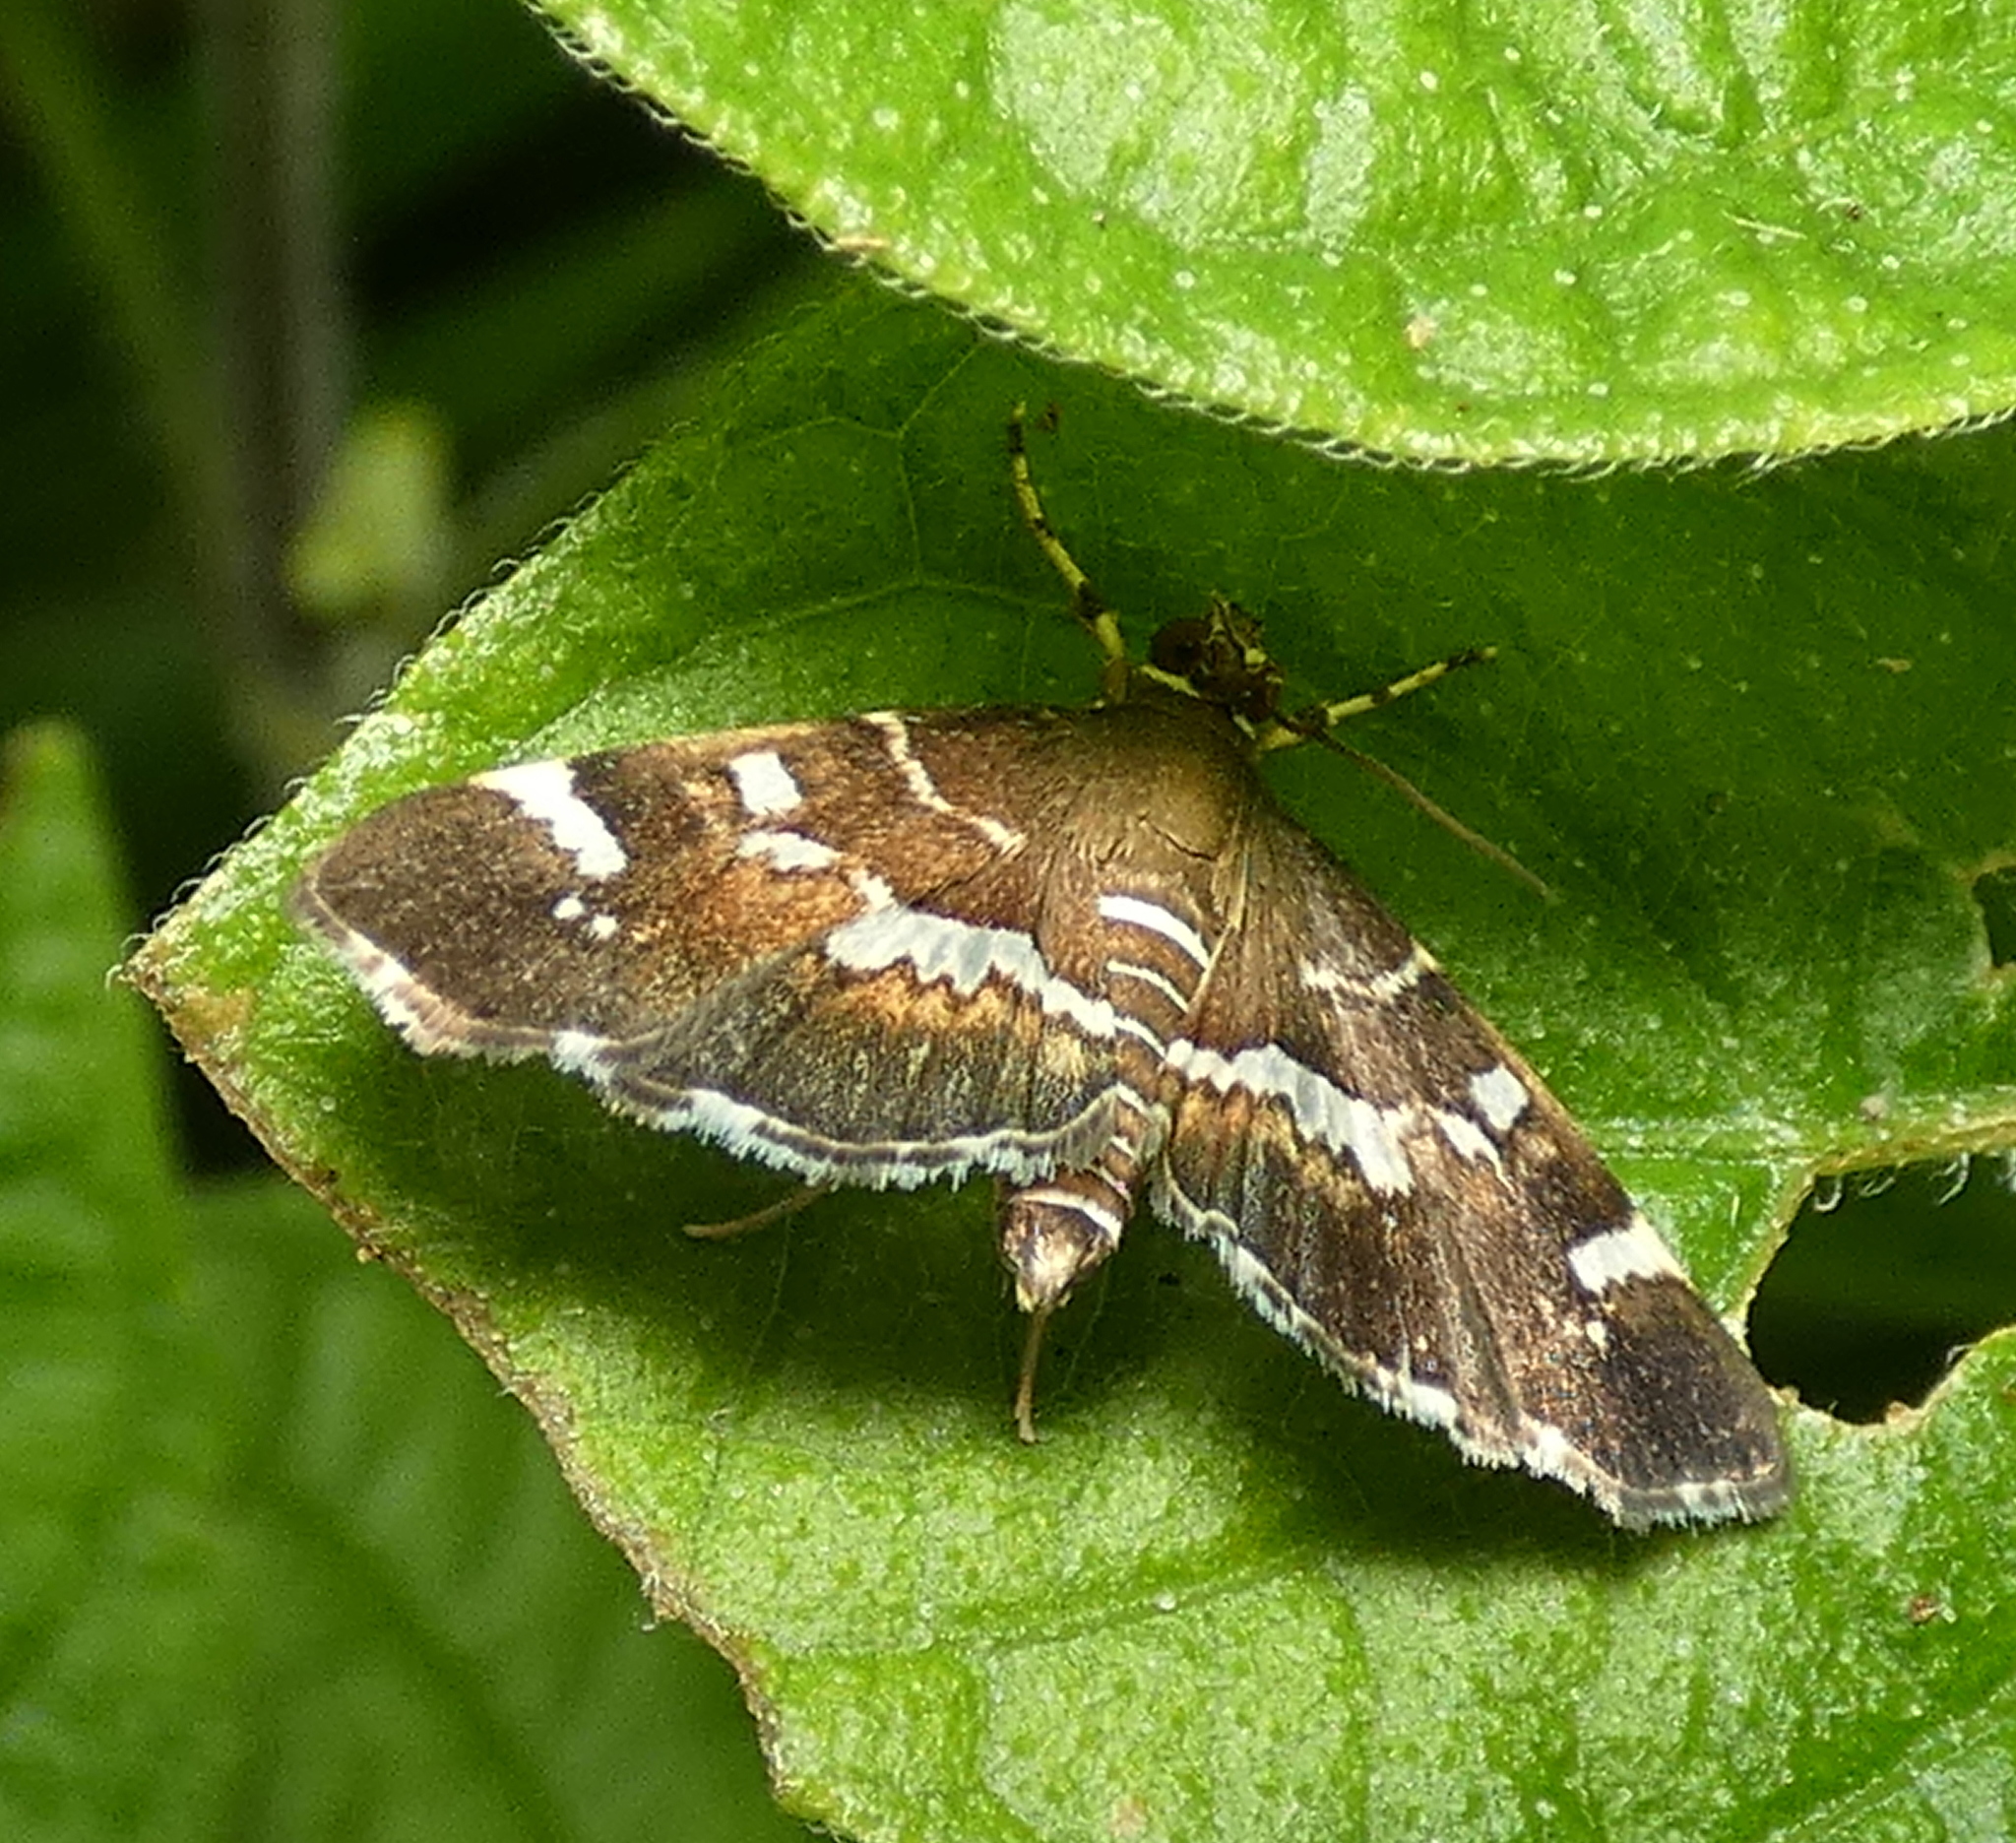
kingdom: Animalia
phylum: Arthropoda
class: Insecta
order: Lepidoptera
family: Crambidae
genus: Hymenia
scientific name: Hymenia perspectalis
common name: Spotted beet webworm
